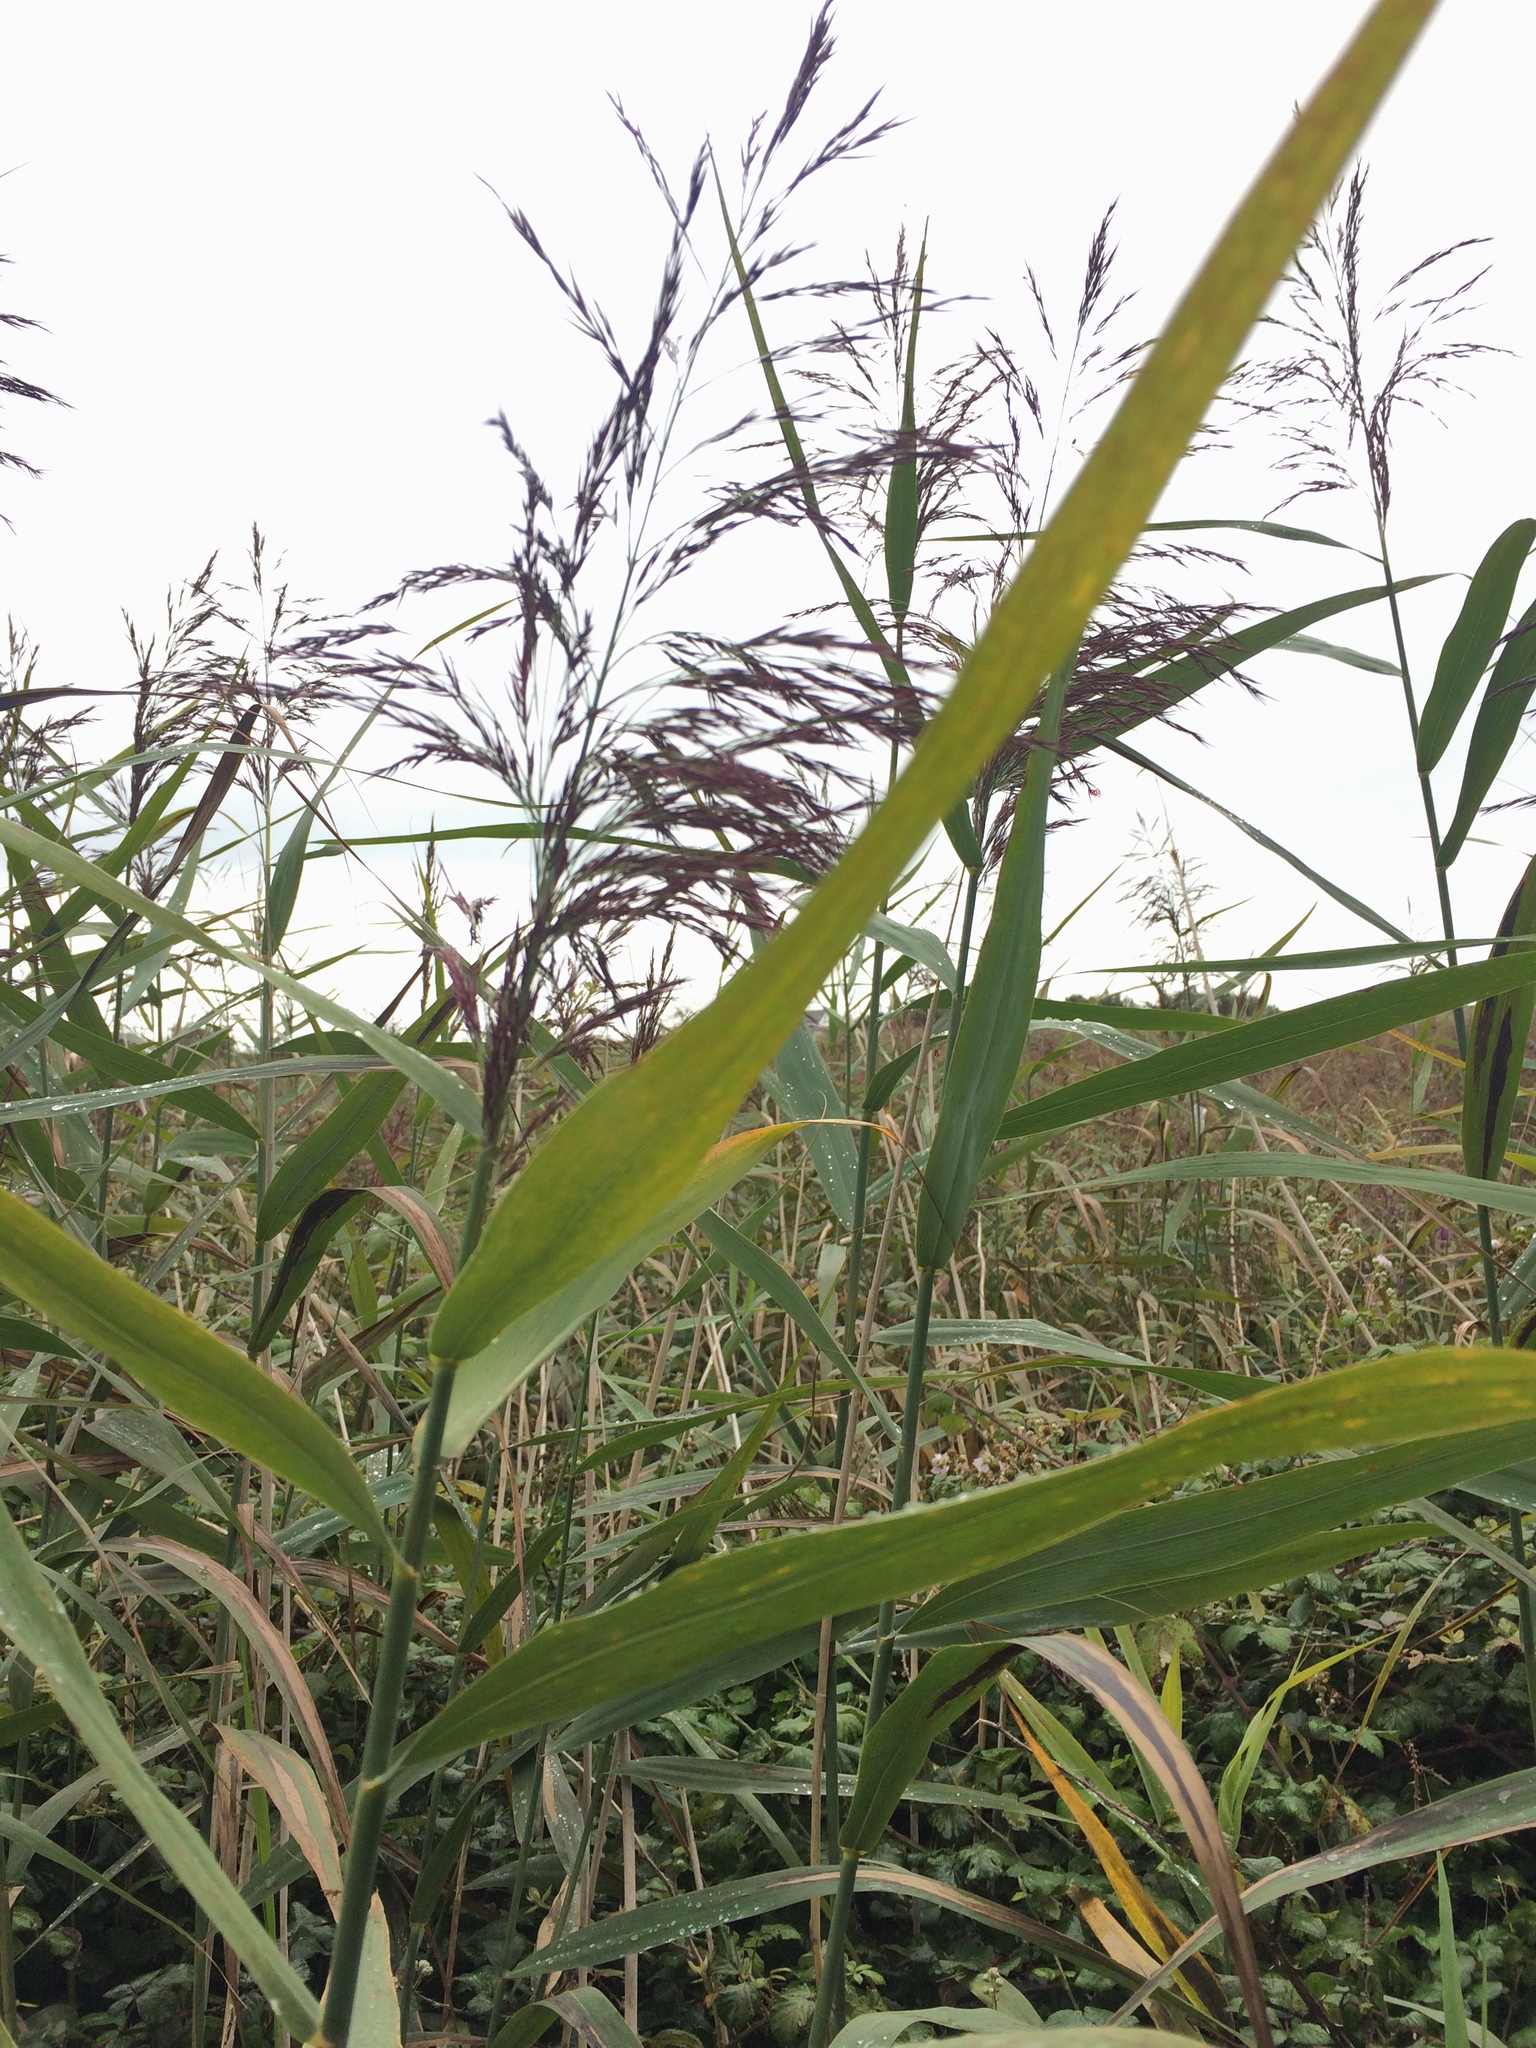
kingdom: Plantae
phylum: Tracheophyta
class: Liliopsida
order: Poales
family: Poaceae
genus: Phragmites
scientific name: Phragmites australis
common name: Common reed
